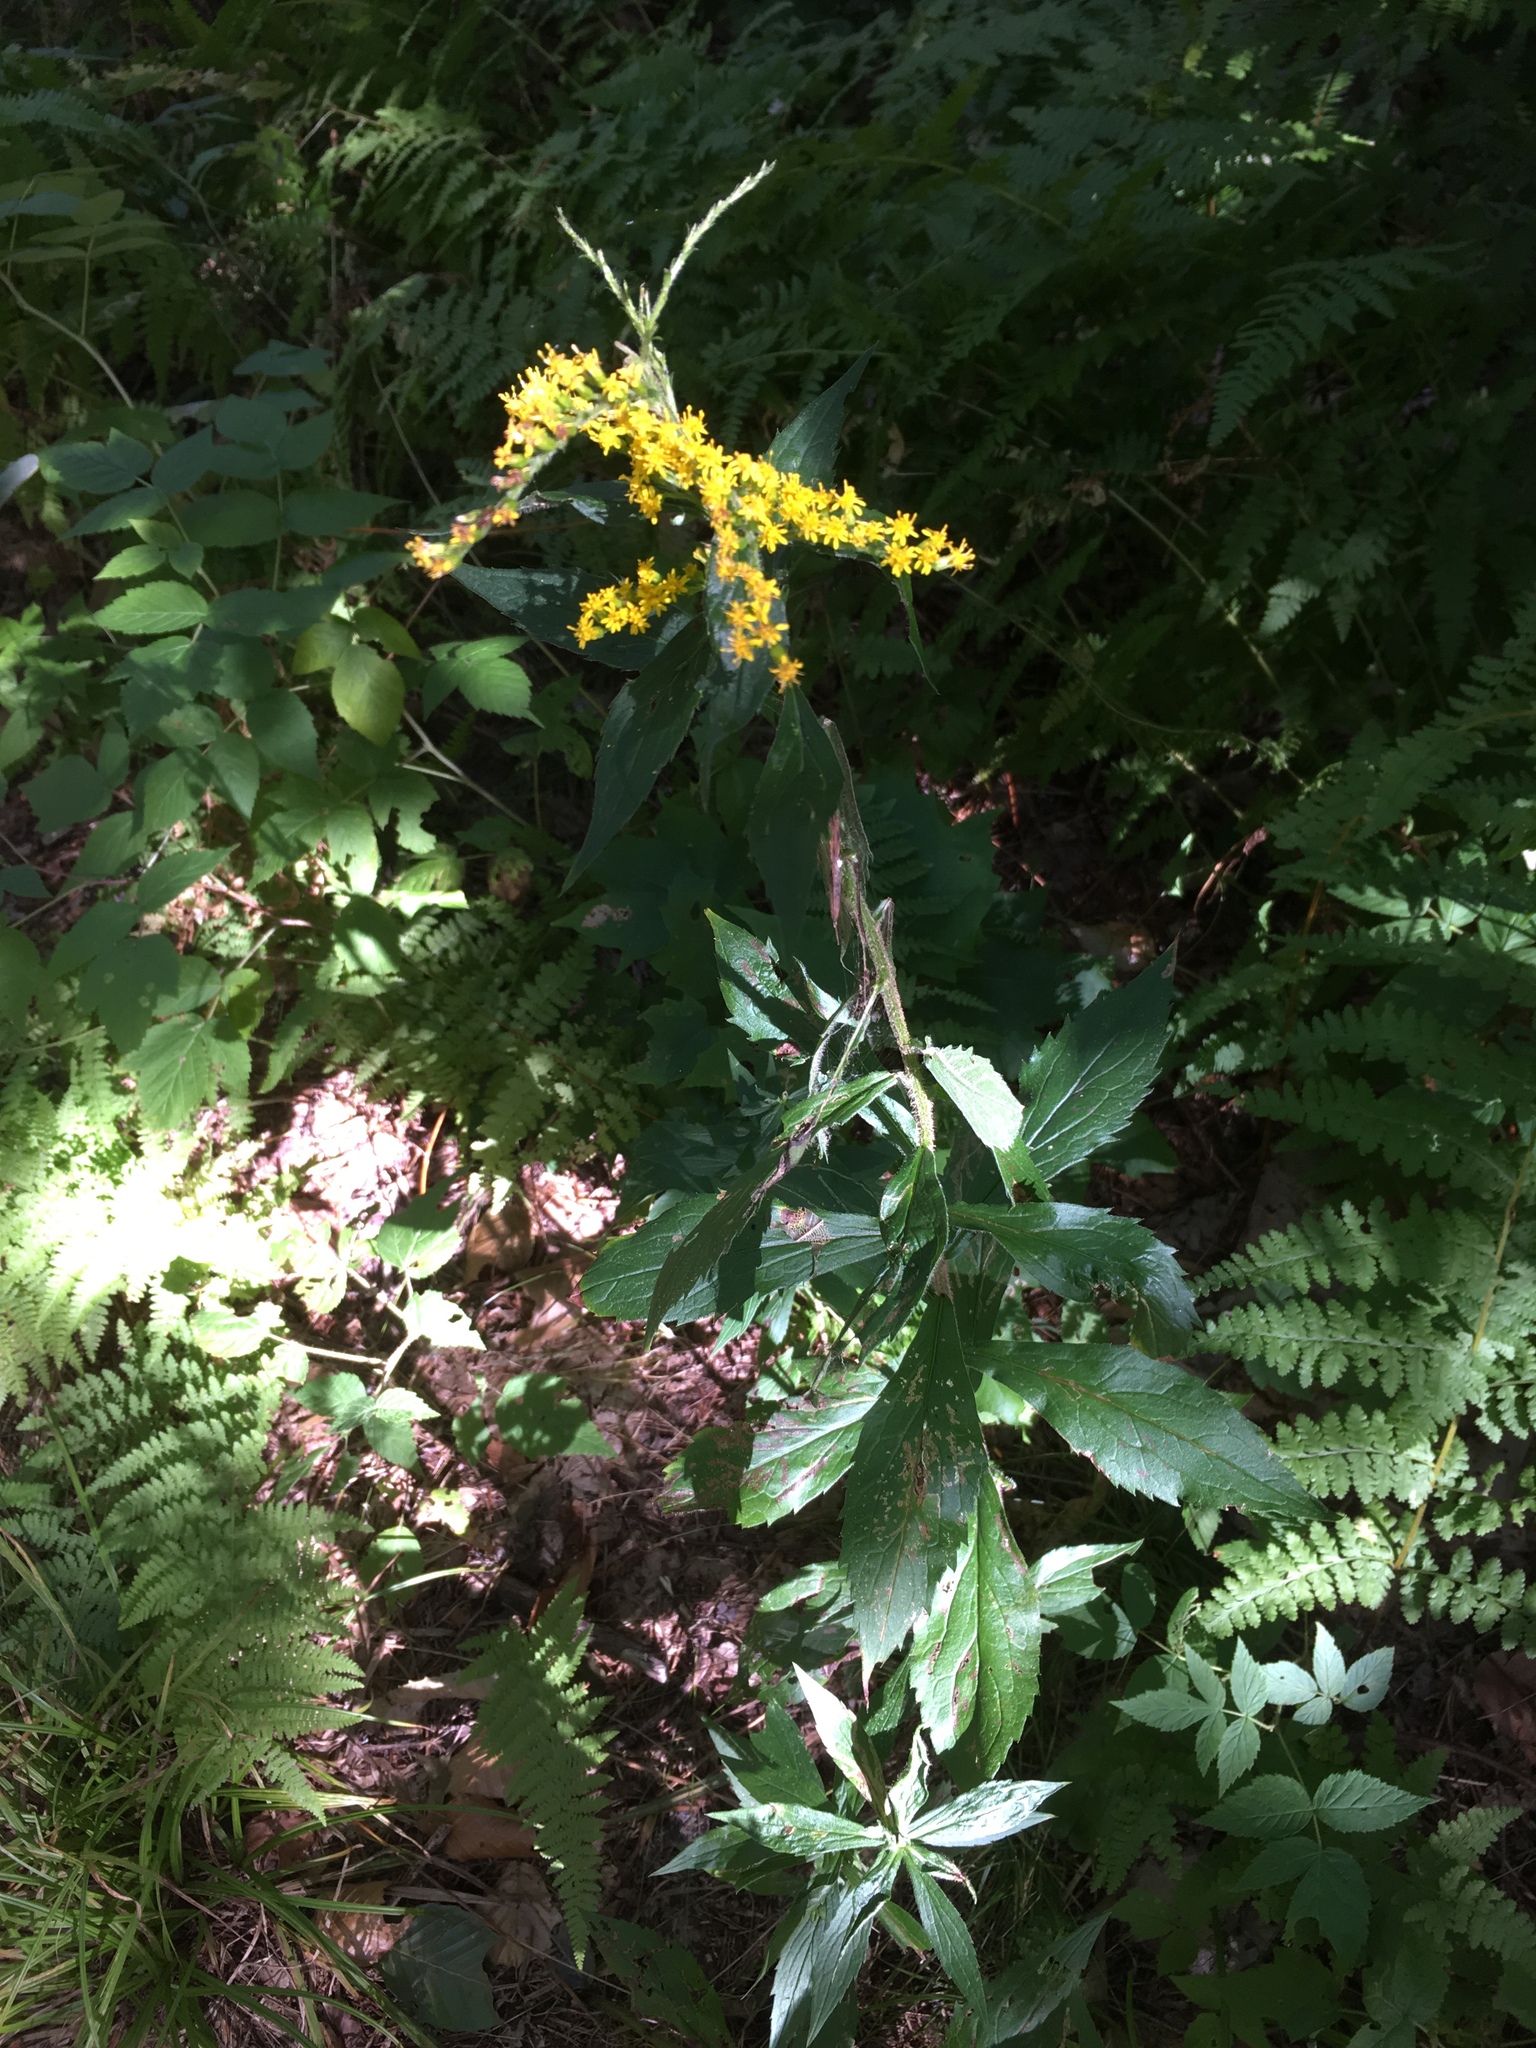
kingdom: Plantae
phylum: Tracheophyta
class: Magnoliopsida
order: Asterales
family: Asteraceae
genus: Solidago
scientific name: Solidago rugosa
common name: Rough-stemmed goldenrod
